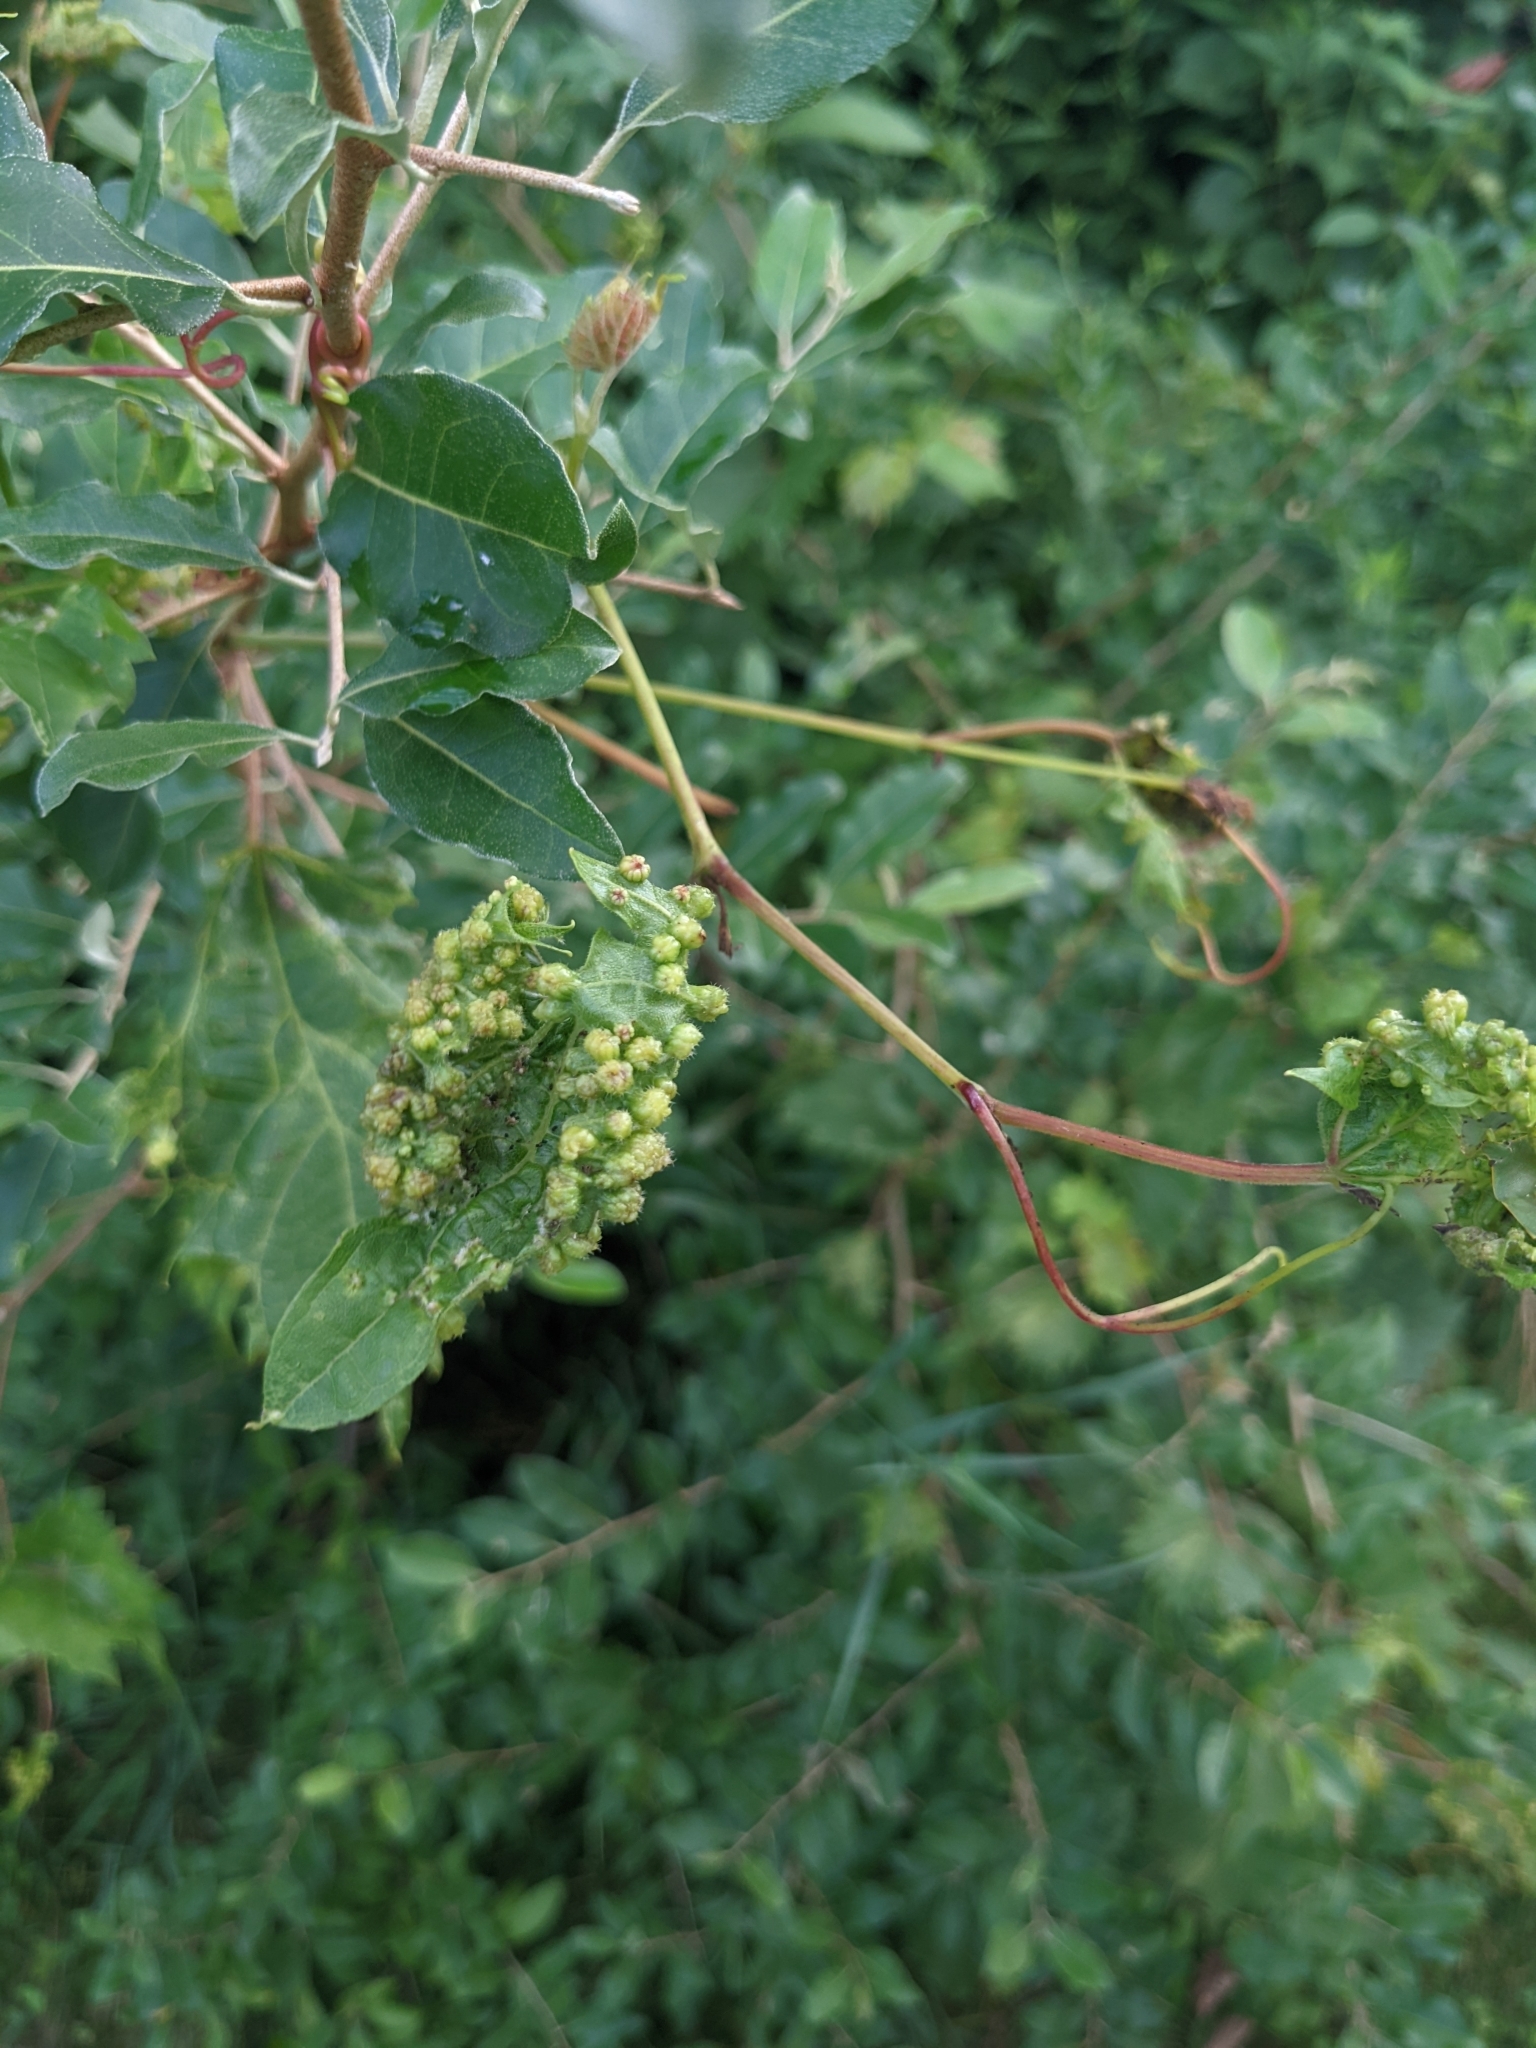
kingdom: Animalia
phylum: Arthropoda
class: Insecta
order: Hemiptera
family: Phylloxeridae
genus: Daktulosphaira
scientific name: Daktulosphaira vitifoliae
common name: Grape phylloxera
